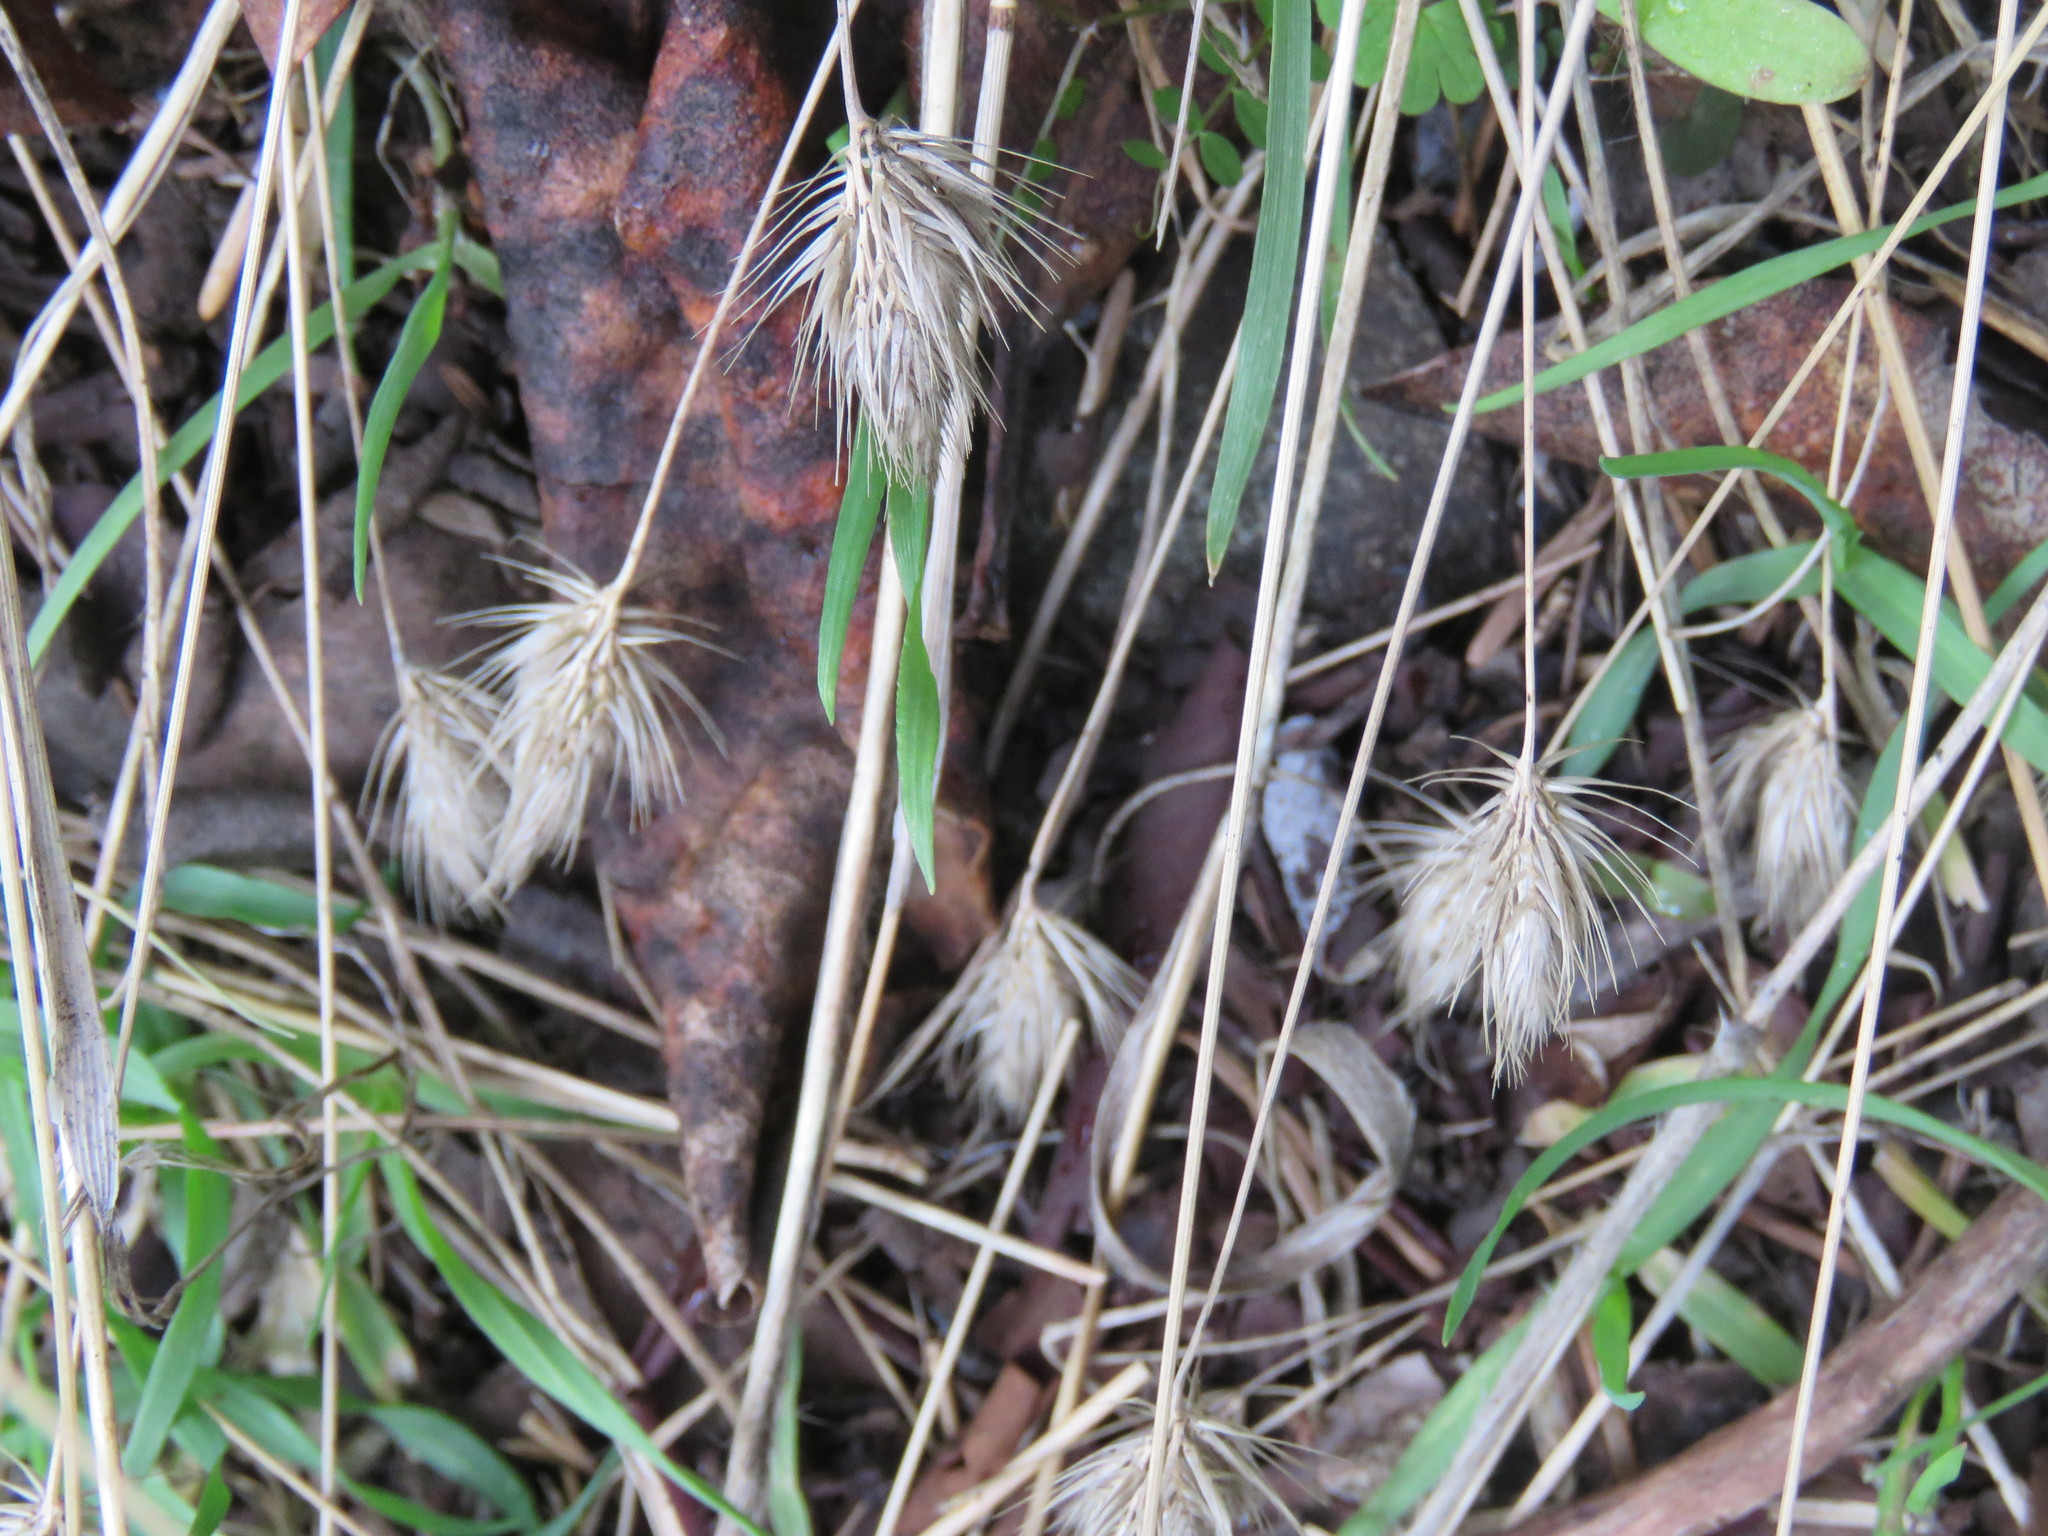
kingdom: Plantae
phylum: Tracheophyta
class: Liliopsida
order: Poales
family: Poaceae
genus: Cynosurus
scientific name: Cynosurus echinatus
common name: Rough dog's-tail
